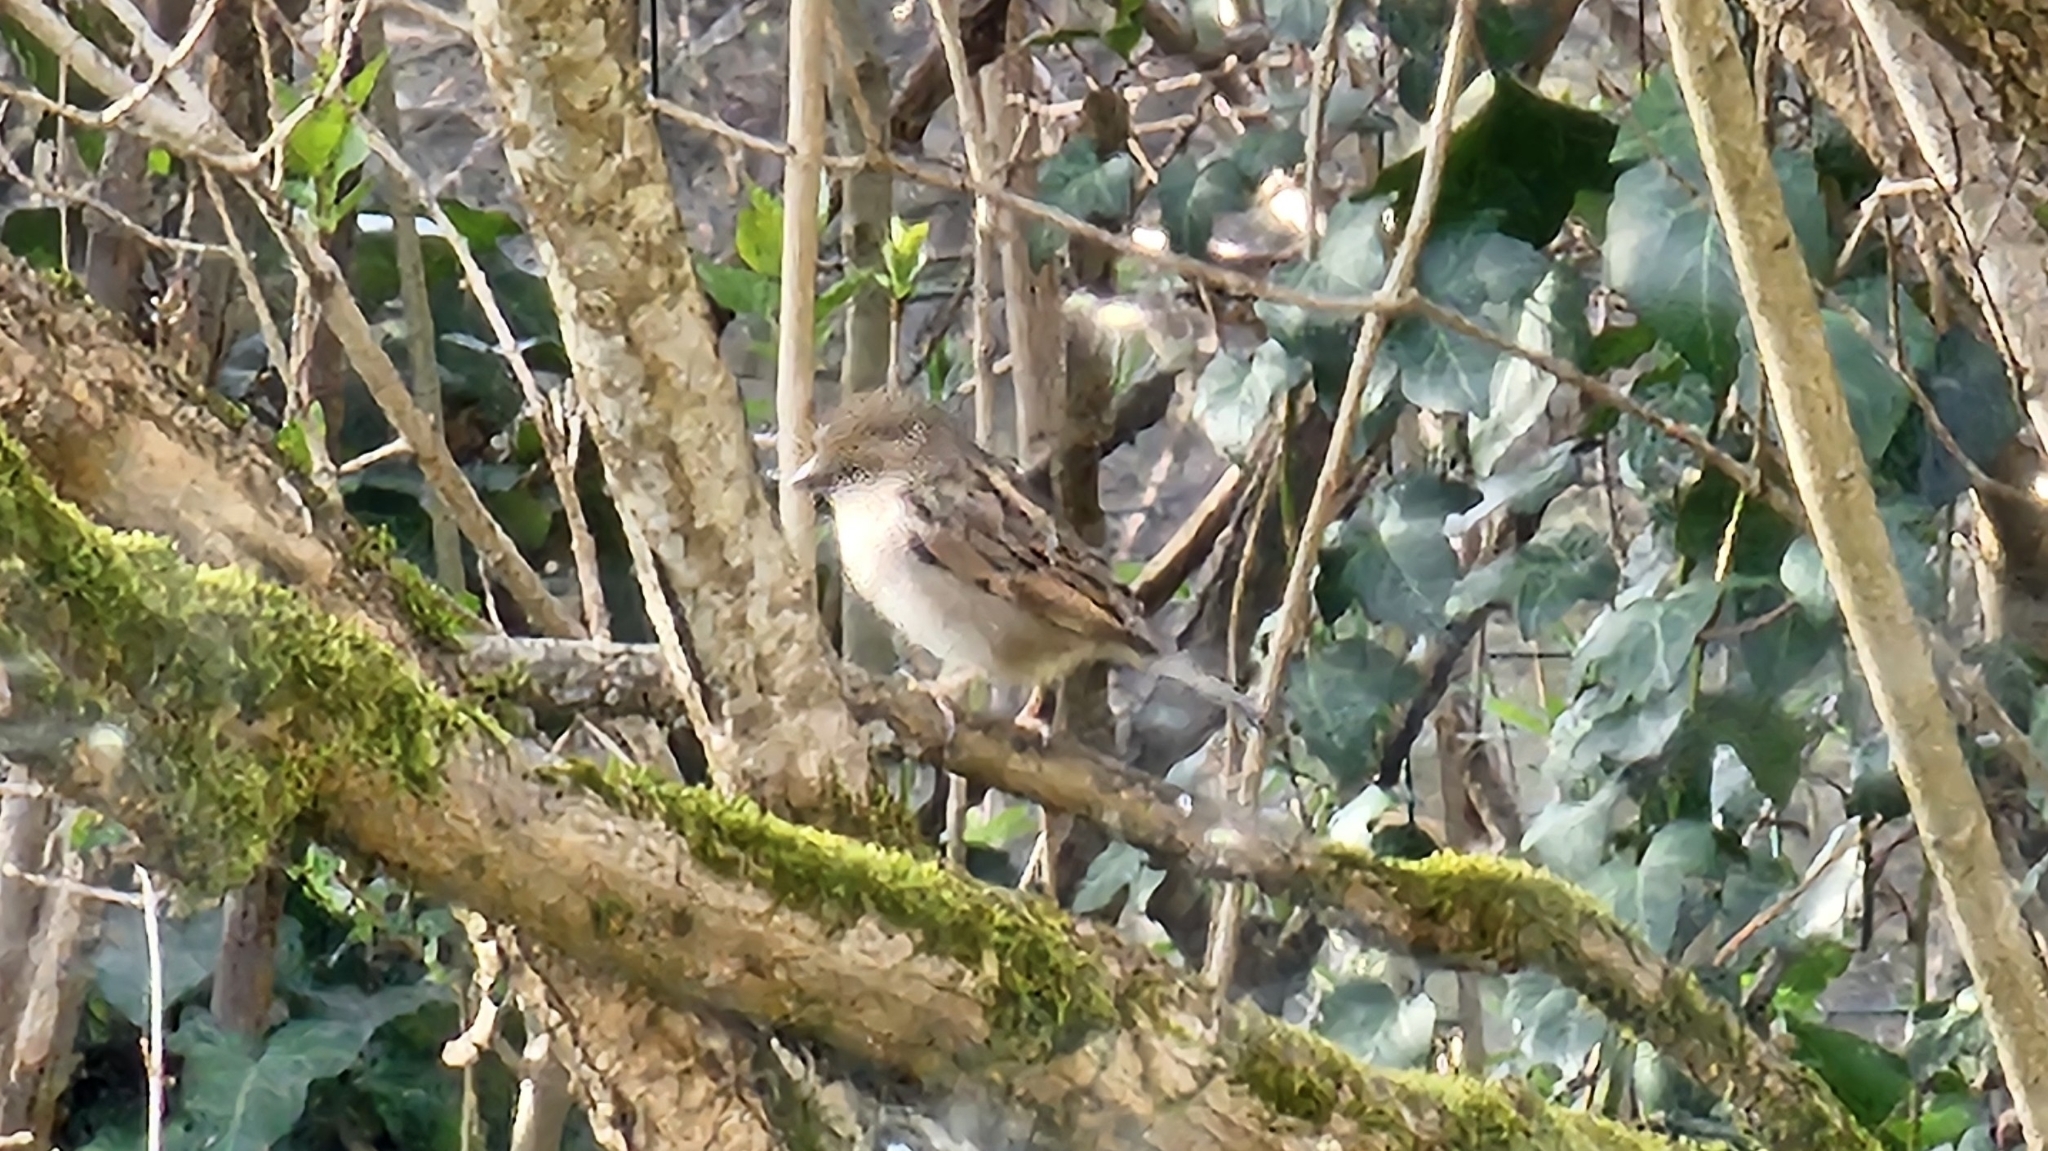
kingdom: Animalia
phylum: Chordata
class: Aves
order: Passeriformes
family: Passeridae
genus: Passer
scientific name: Passer domesticus
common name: House sparrow
